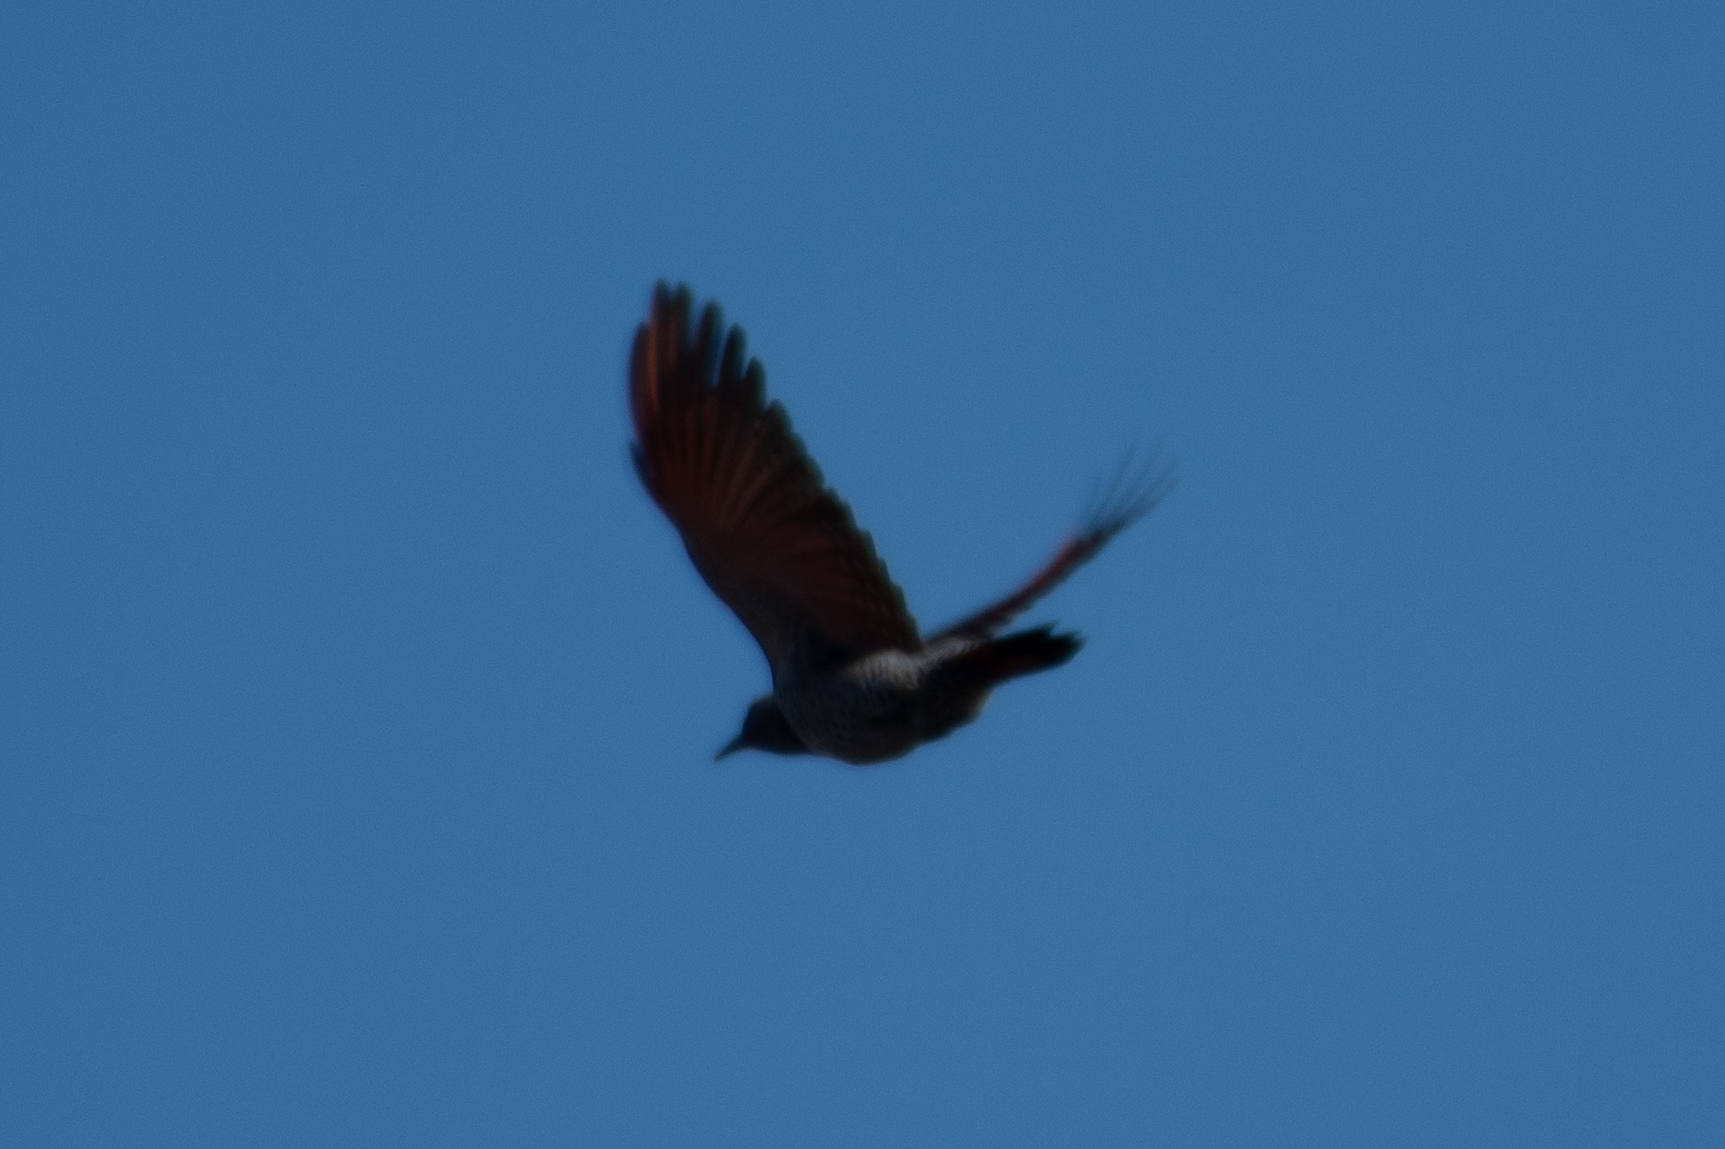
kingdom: Animalia
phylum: Chordata
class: Aves
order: Piciformes
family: Picidae
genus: Colaptes
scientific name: Colaptes auratus
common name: Northern flicker
